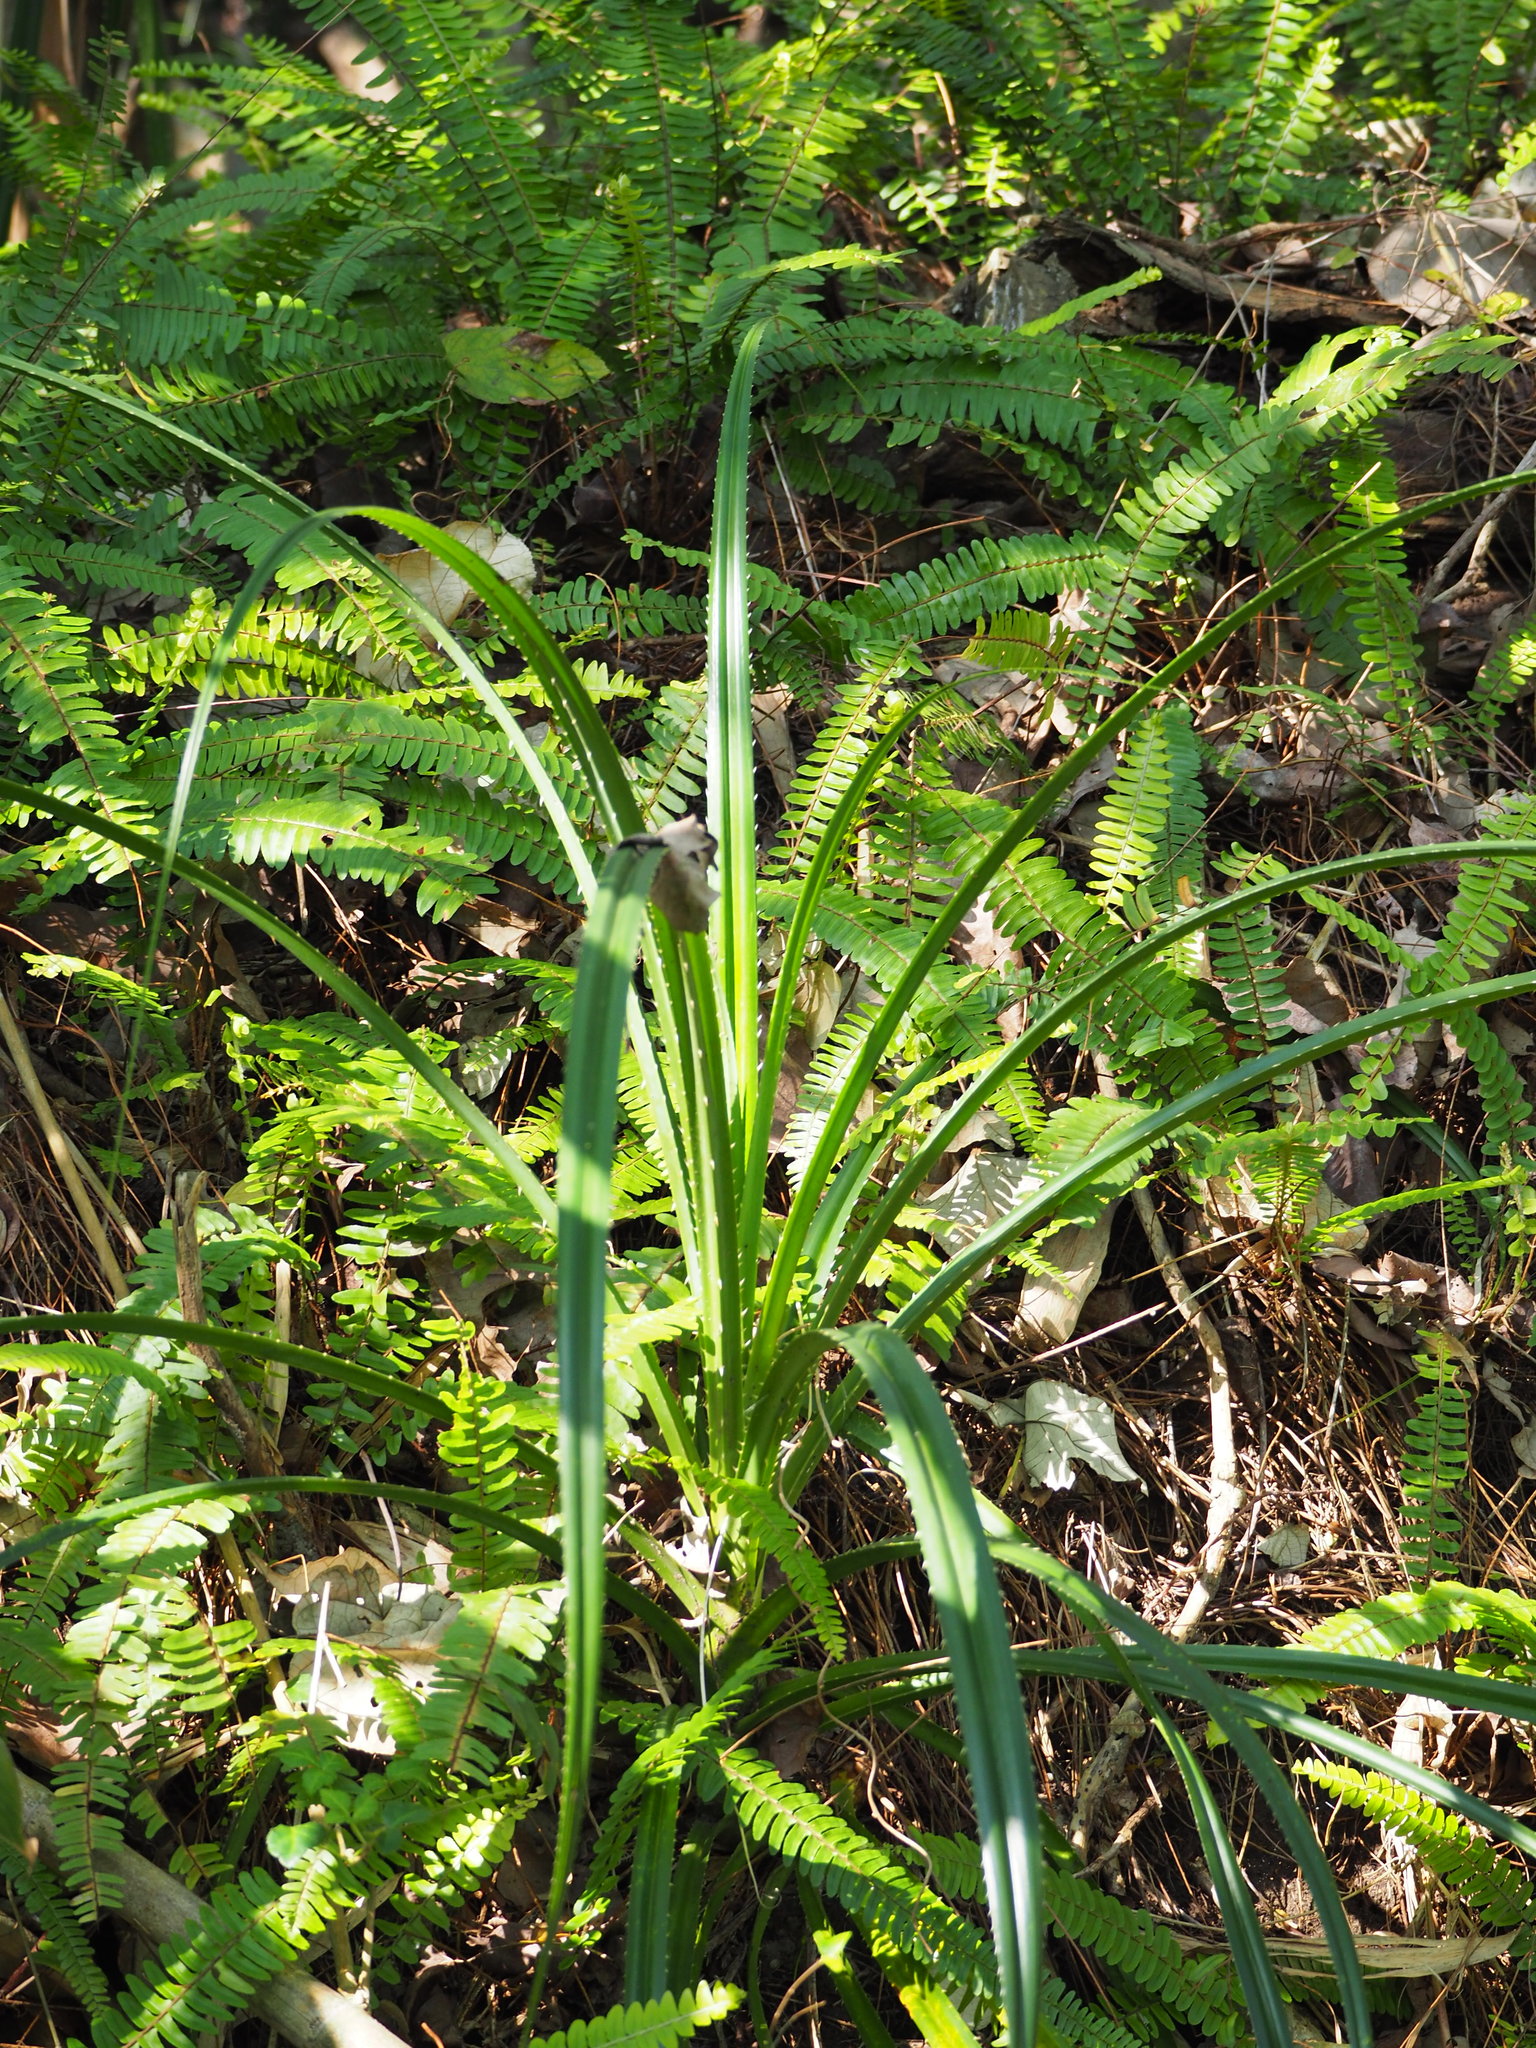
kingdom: Plantae
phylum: Tracheophyta
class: Liliopsida
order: Pandanales
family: Pandanaceae
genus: Pandanus
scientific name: Pandanus odorifer
